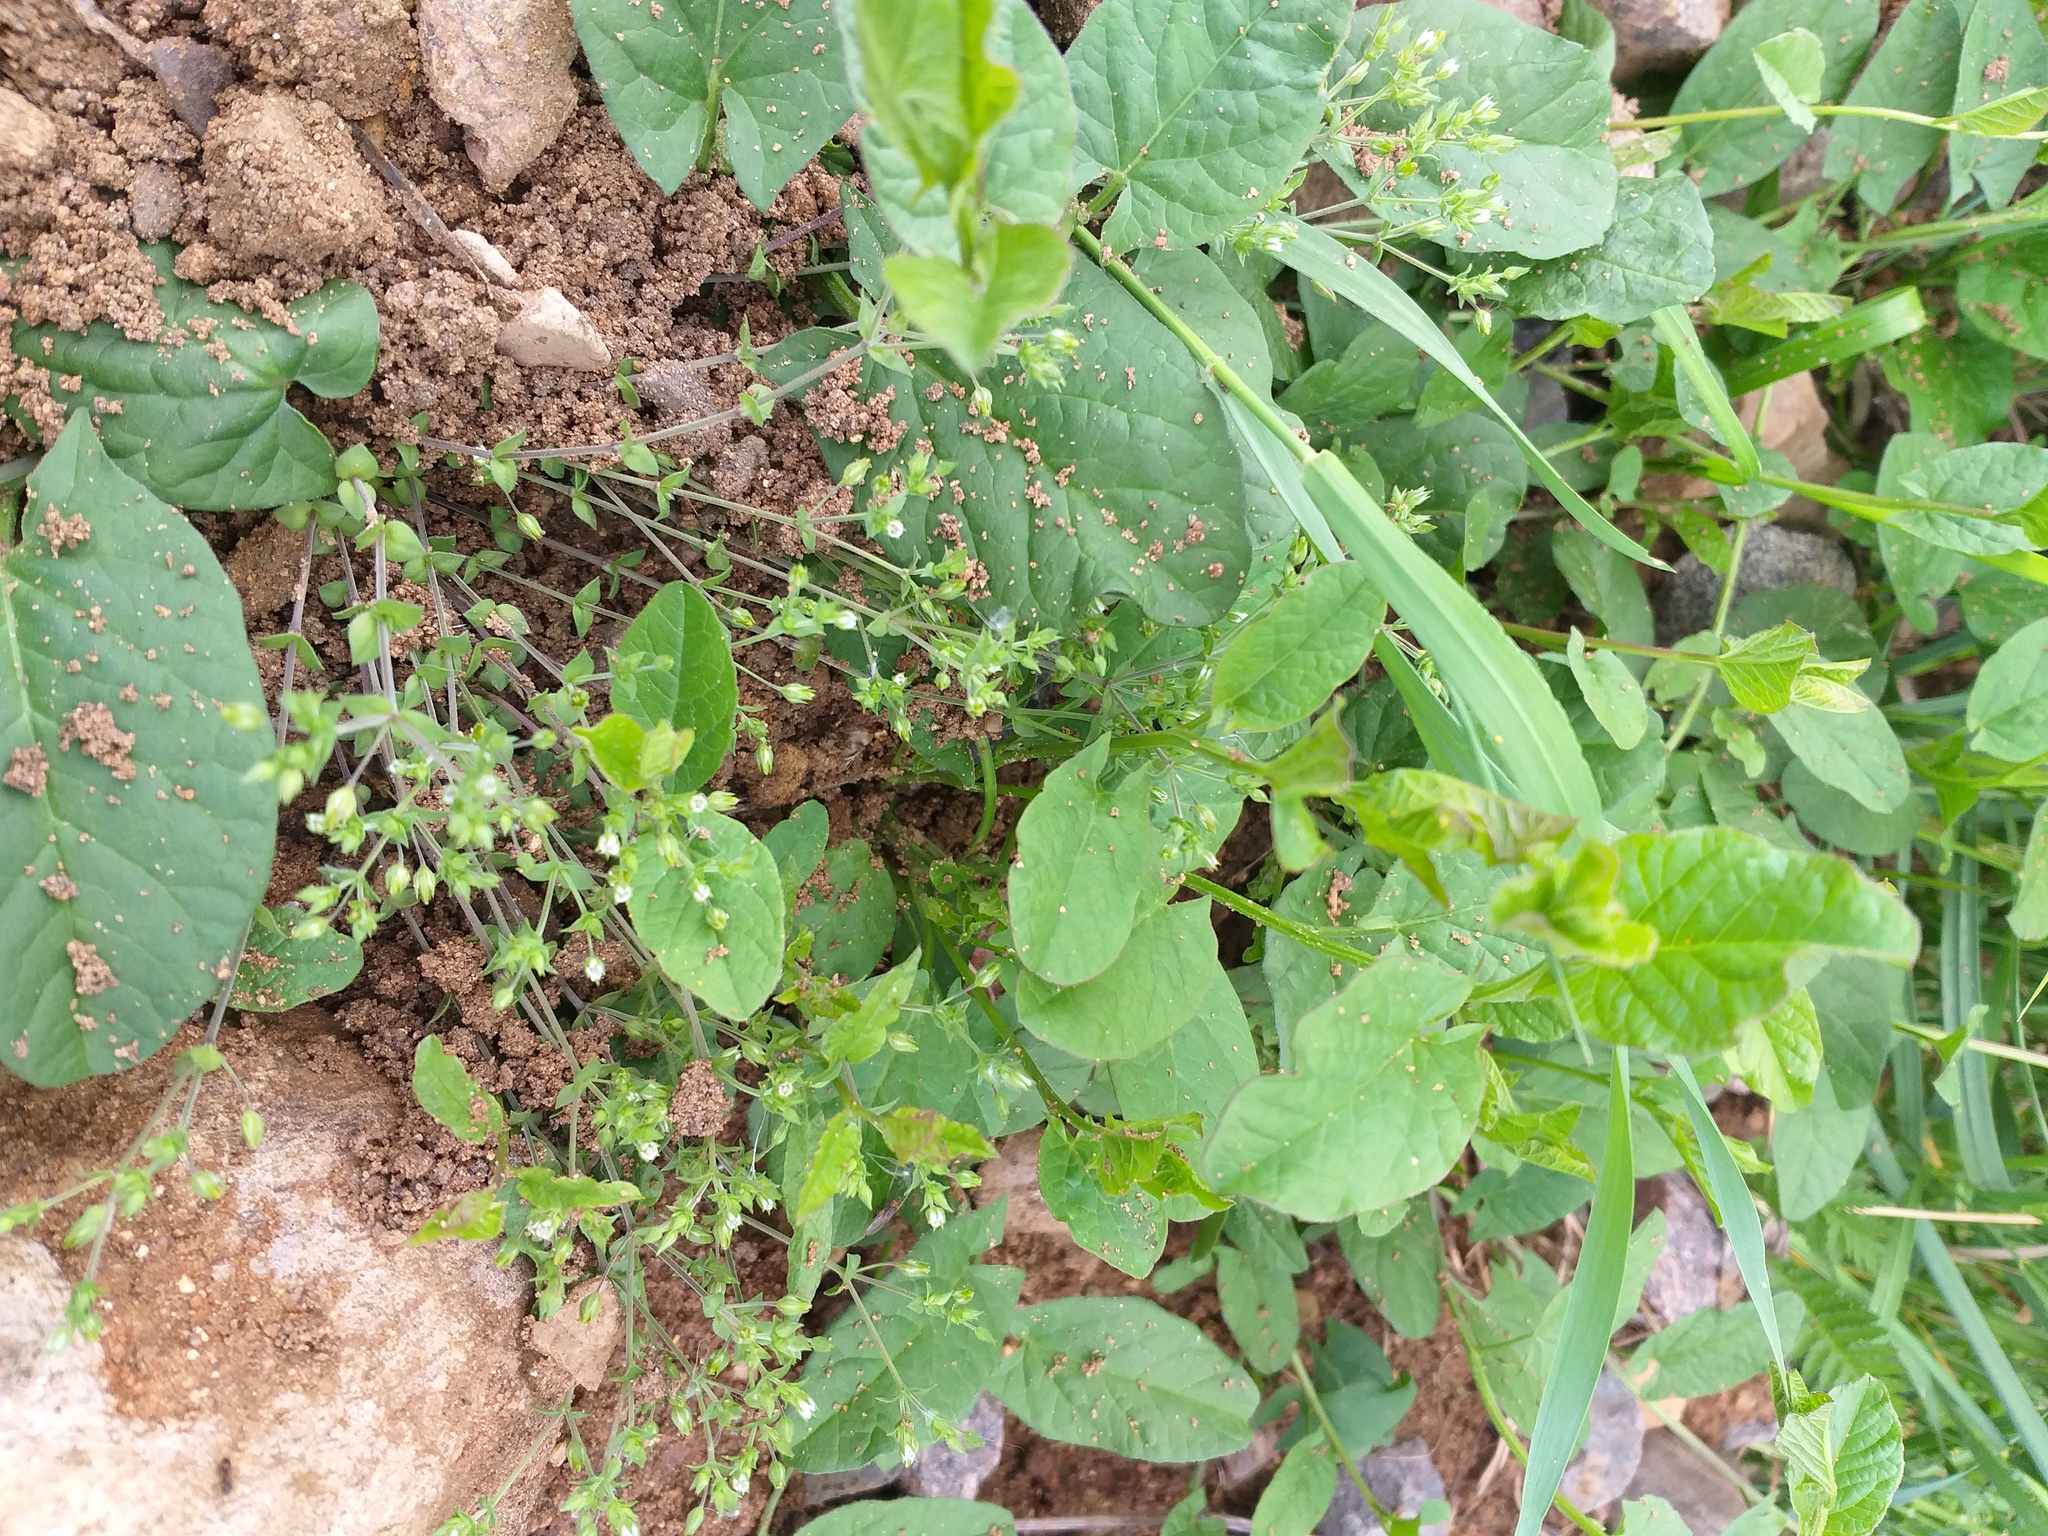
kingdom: Plantae
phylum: Tracheophyta
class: Magnoliopsida
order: Caryophyllales
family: Caryophyllaceae
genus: Arenaria
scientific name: Arenaria serpyllifolia
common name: Thyme-leaved sandwort
